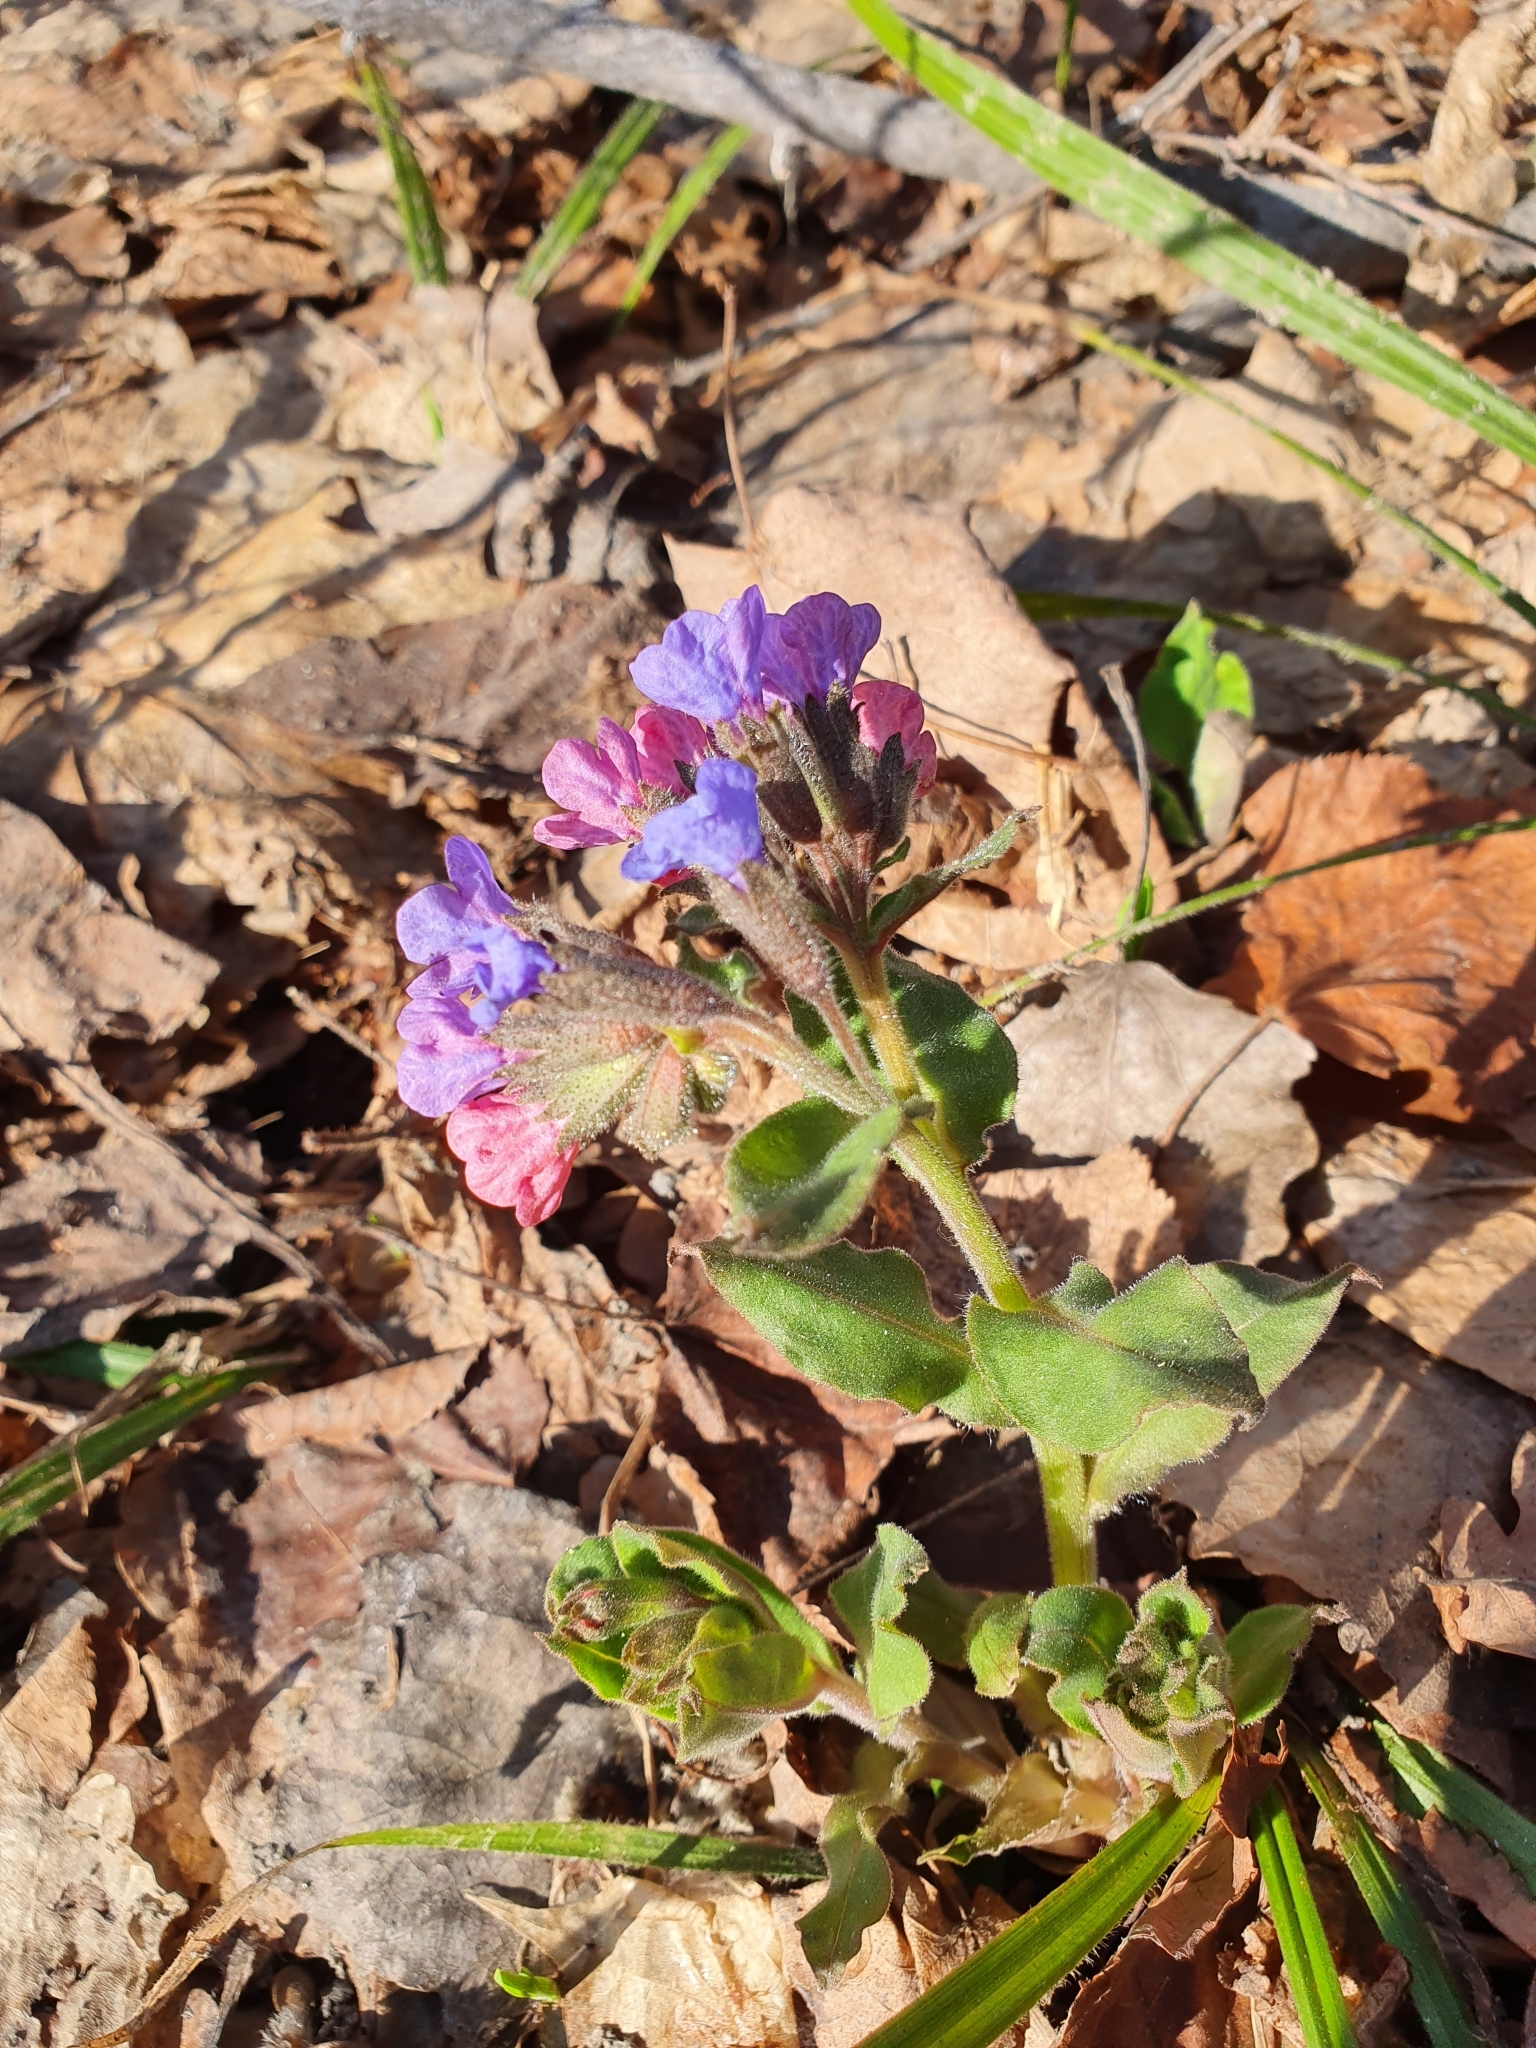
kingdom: Plantae
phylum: Tracheophyta
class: Magnoliopsida
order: Boraginales
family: Boraginaceae
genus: Pulmonaria
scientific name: Pulmonaria obscura
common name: Suffolk lungwort
